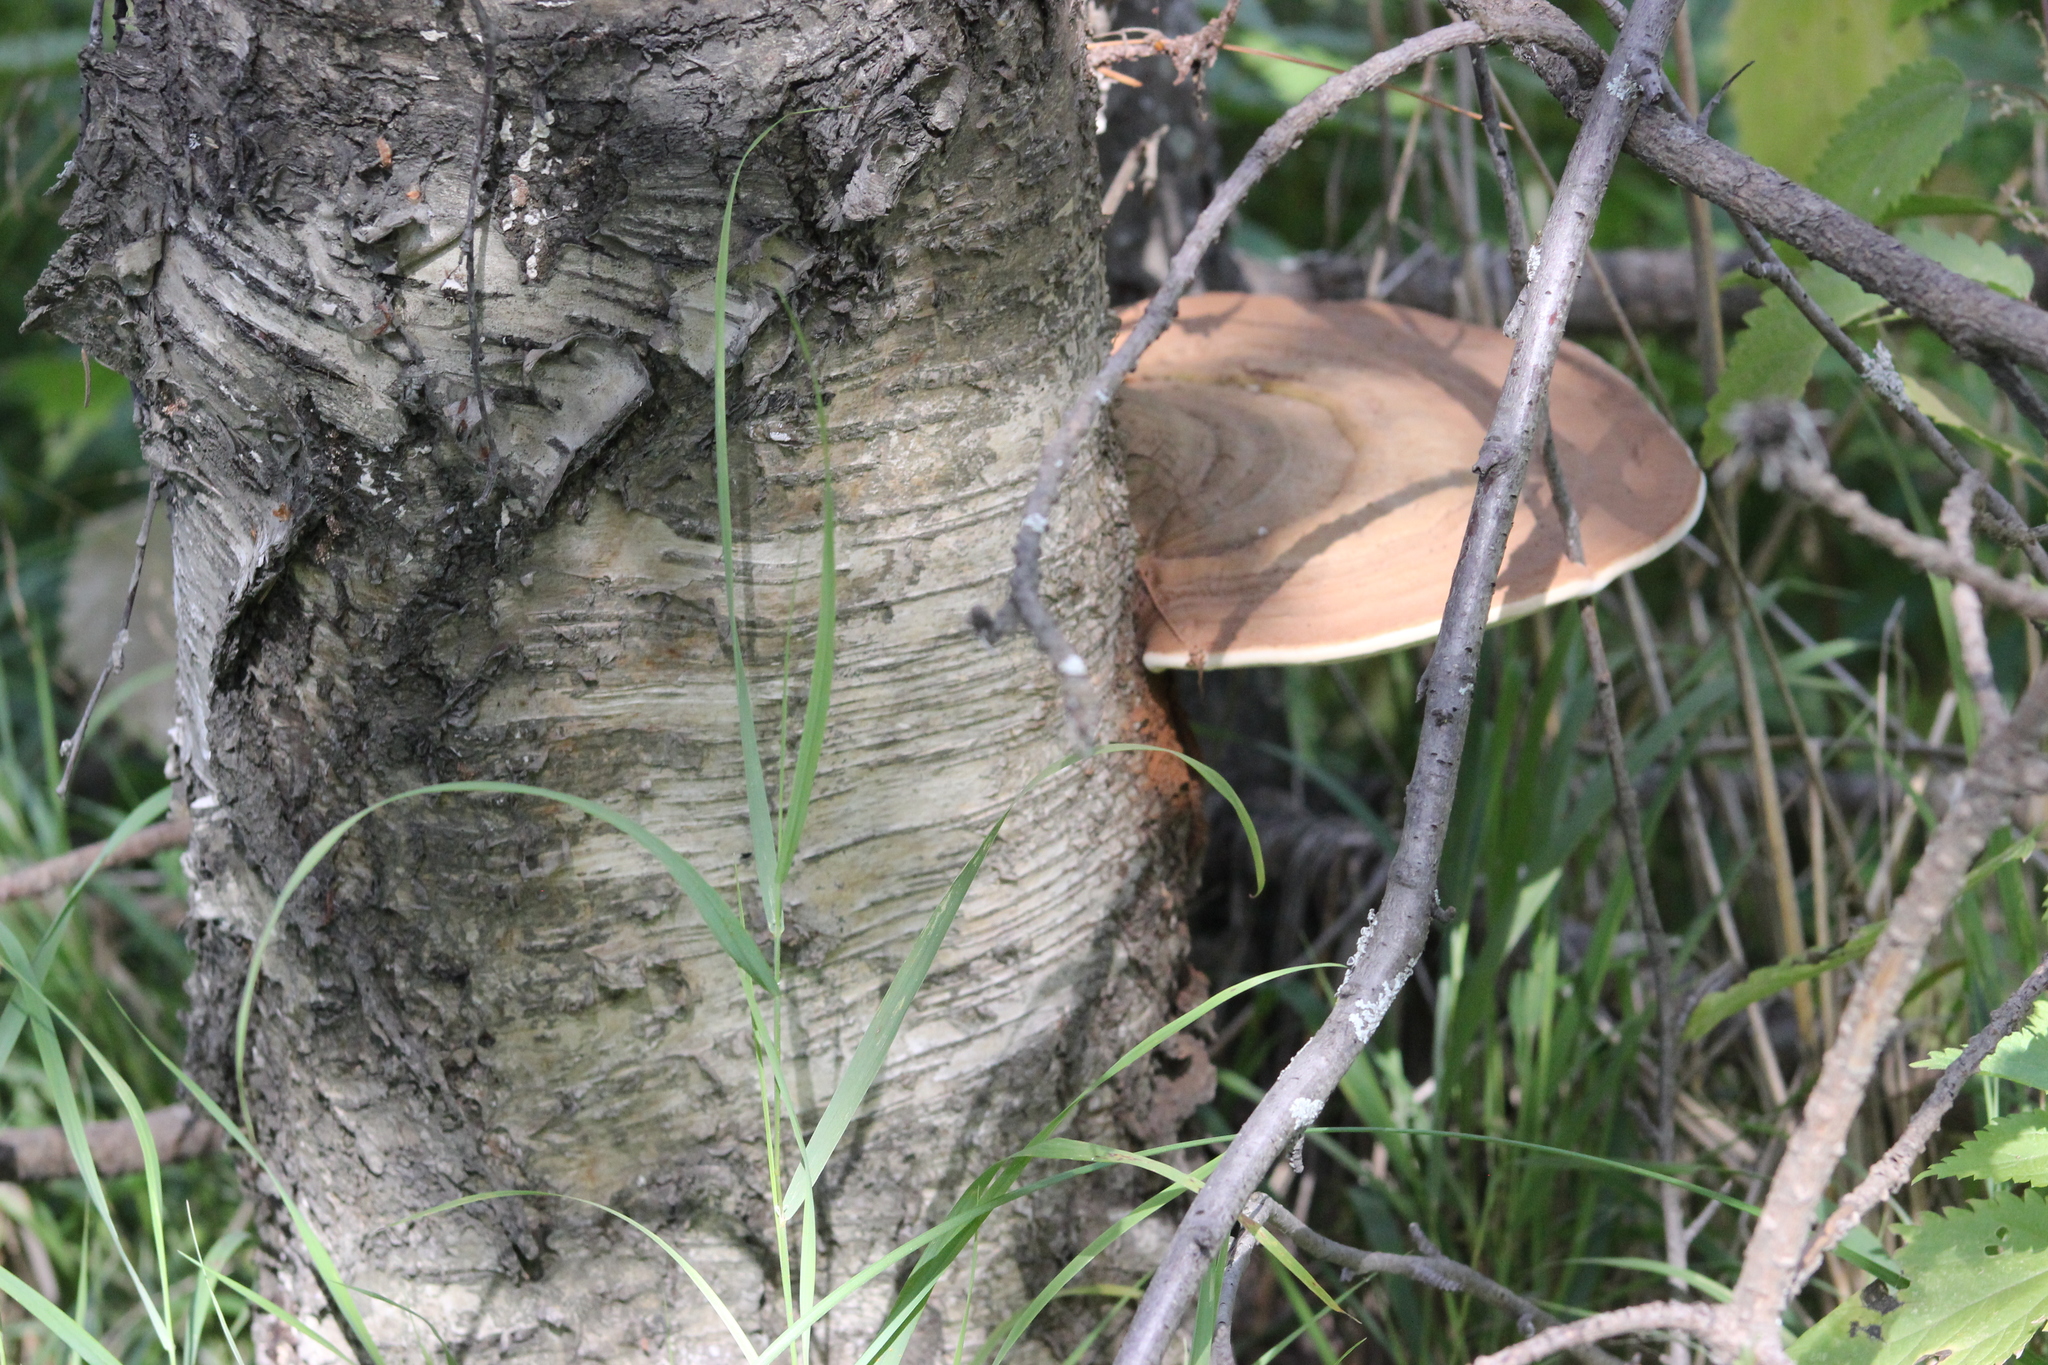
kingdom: Fungi
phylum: Basidiomycota
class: Agaricomycetes
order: Polyporales
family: Polyporaceae
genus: Ganoderma
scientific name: Ganoderma applanatum
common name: Artist's bracket
